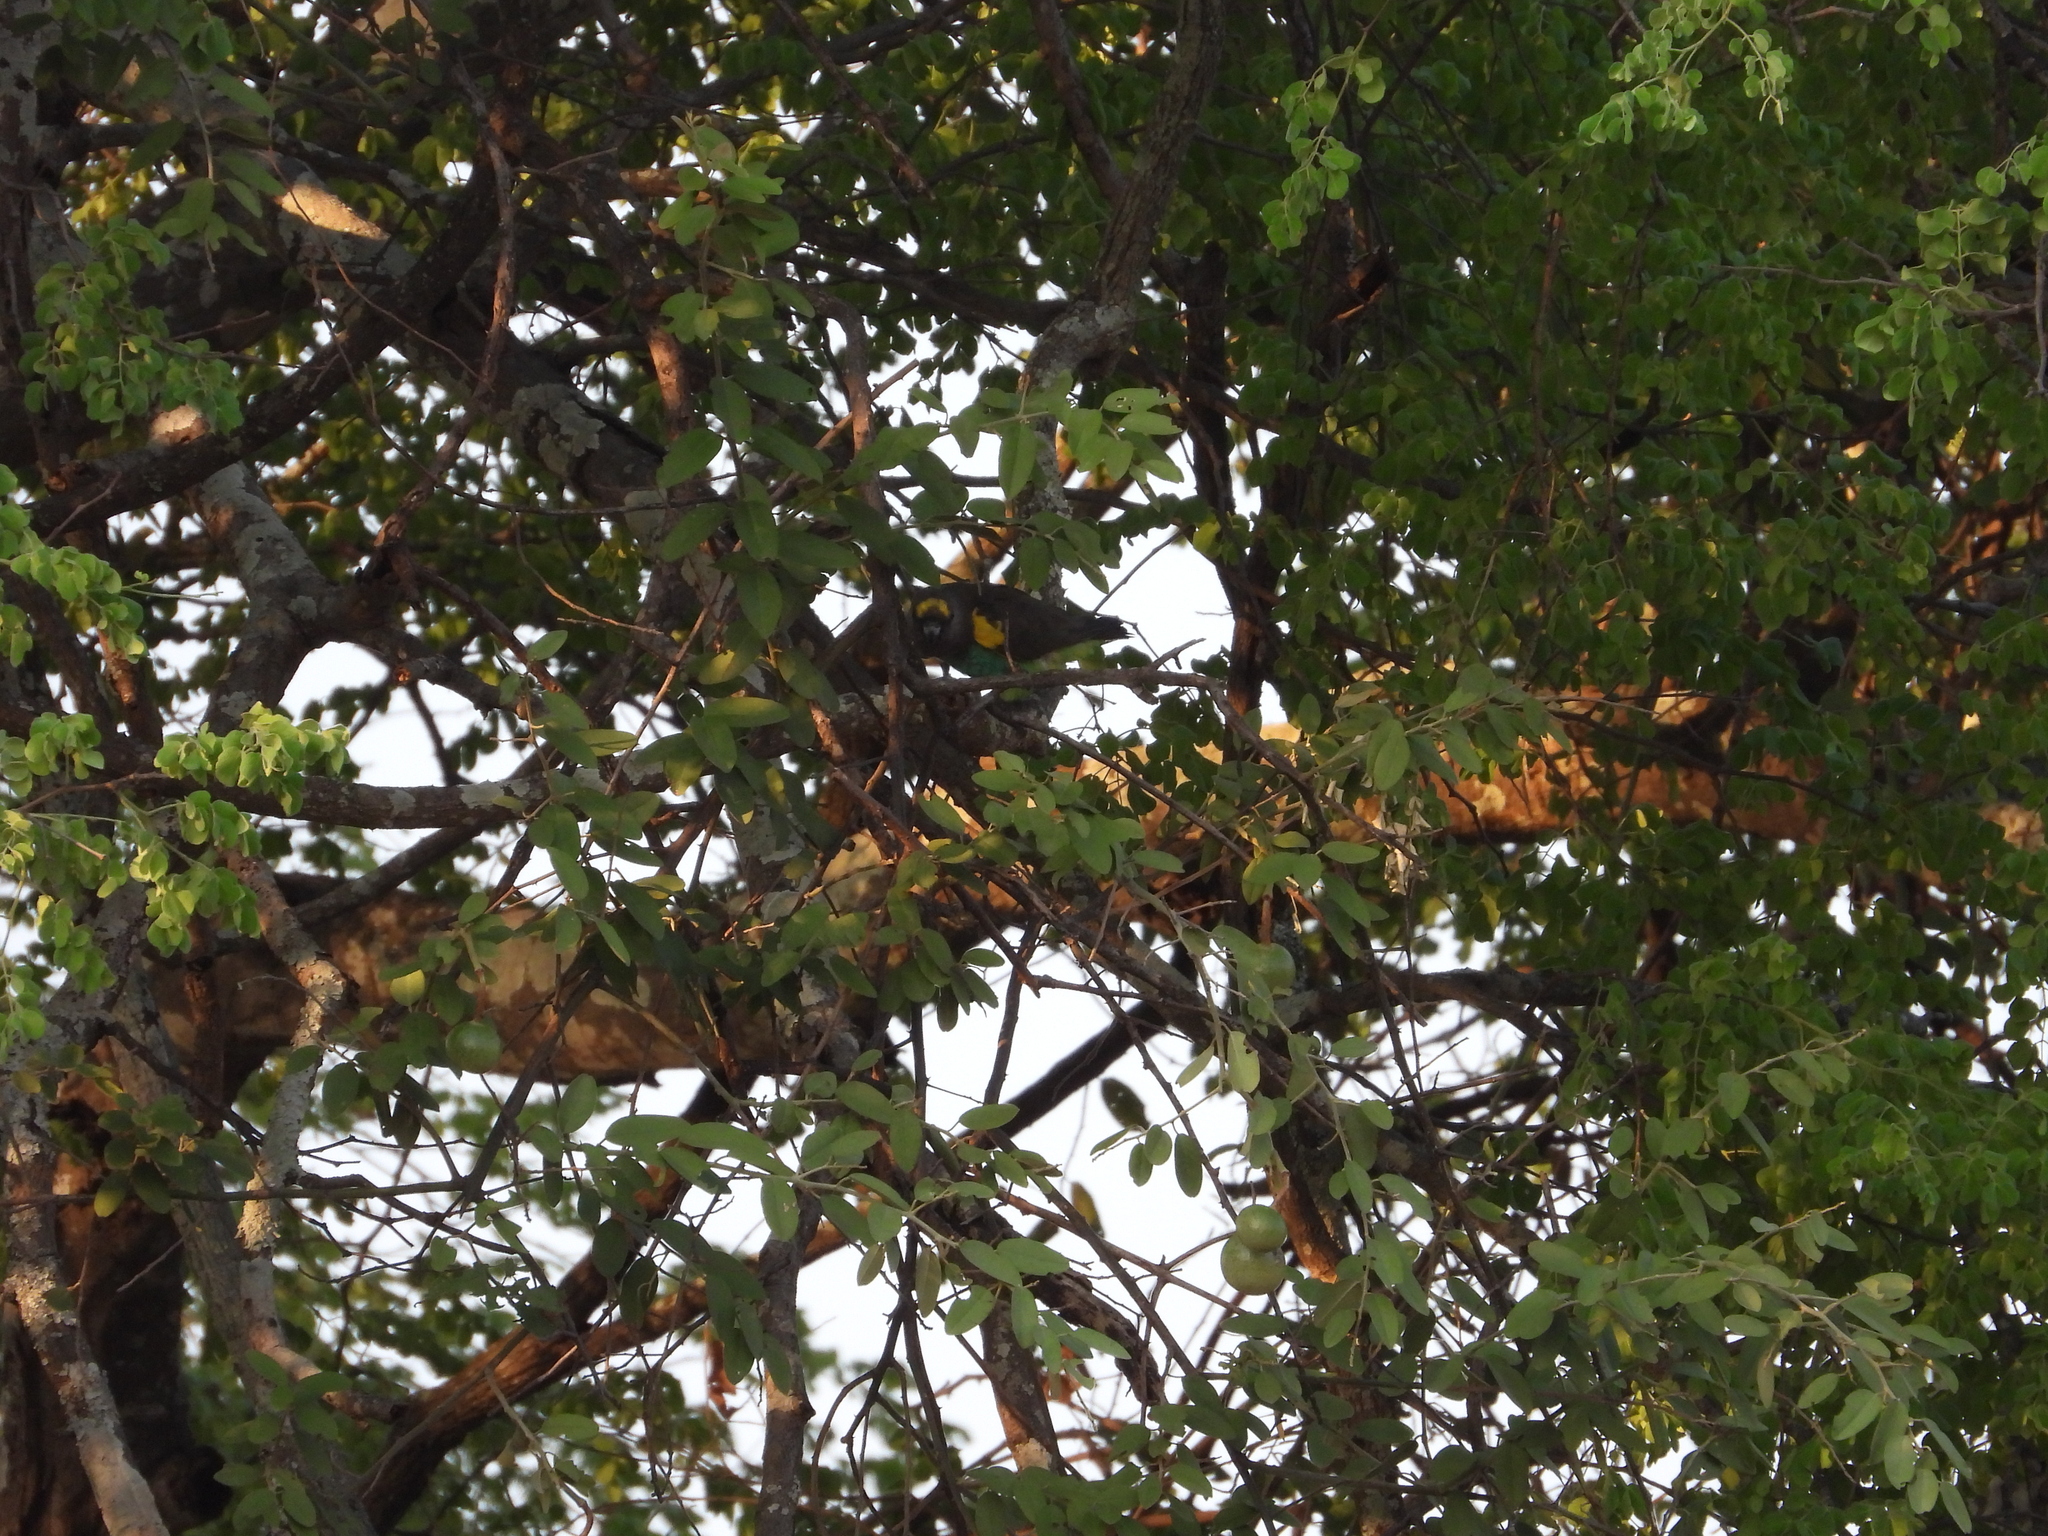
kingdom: Animalia
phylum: Chordata
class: Aves
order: Psittaciformes
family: Psittacidae
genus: Poicephalus
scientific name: Poicephalus meyeri
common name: Meyer's parrot
